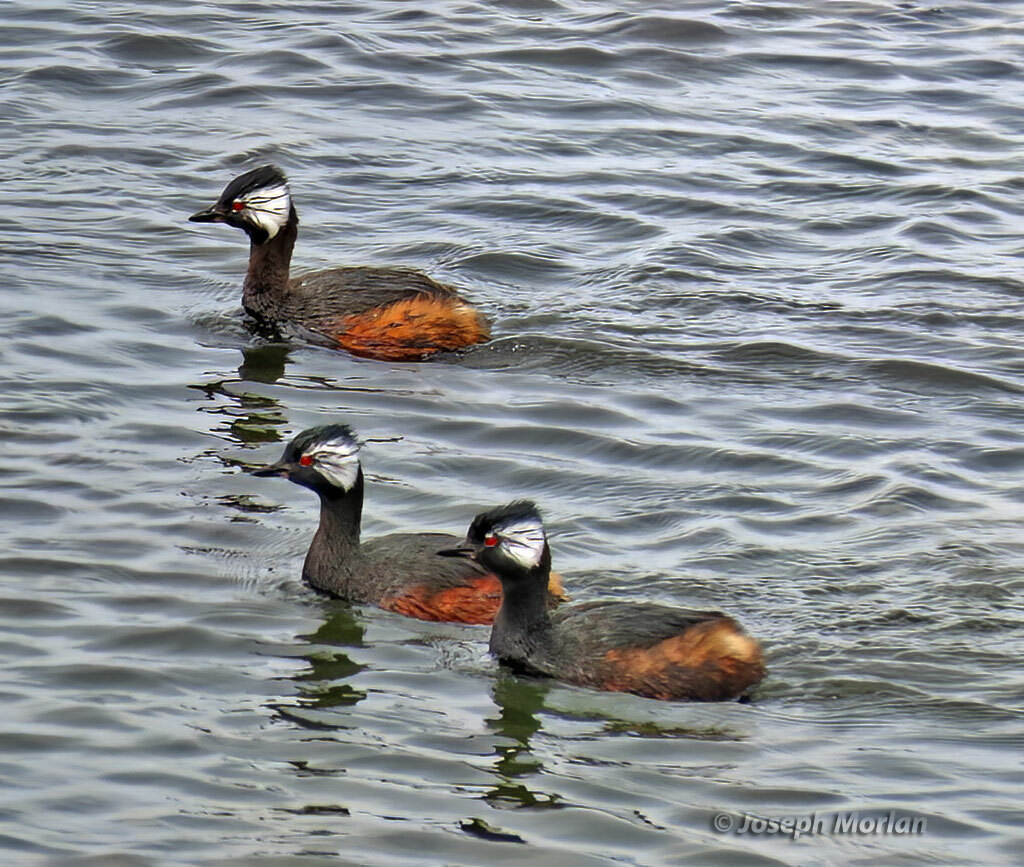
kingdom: Animalia
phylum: Chordata
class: Aves
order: Podicipediformes
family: Podicipedidae
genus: Rollandia
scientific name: Rollandia rolland
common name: White-tufted grebe
